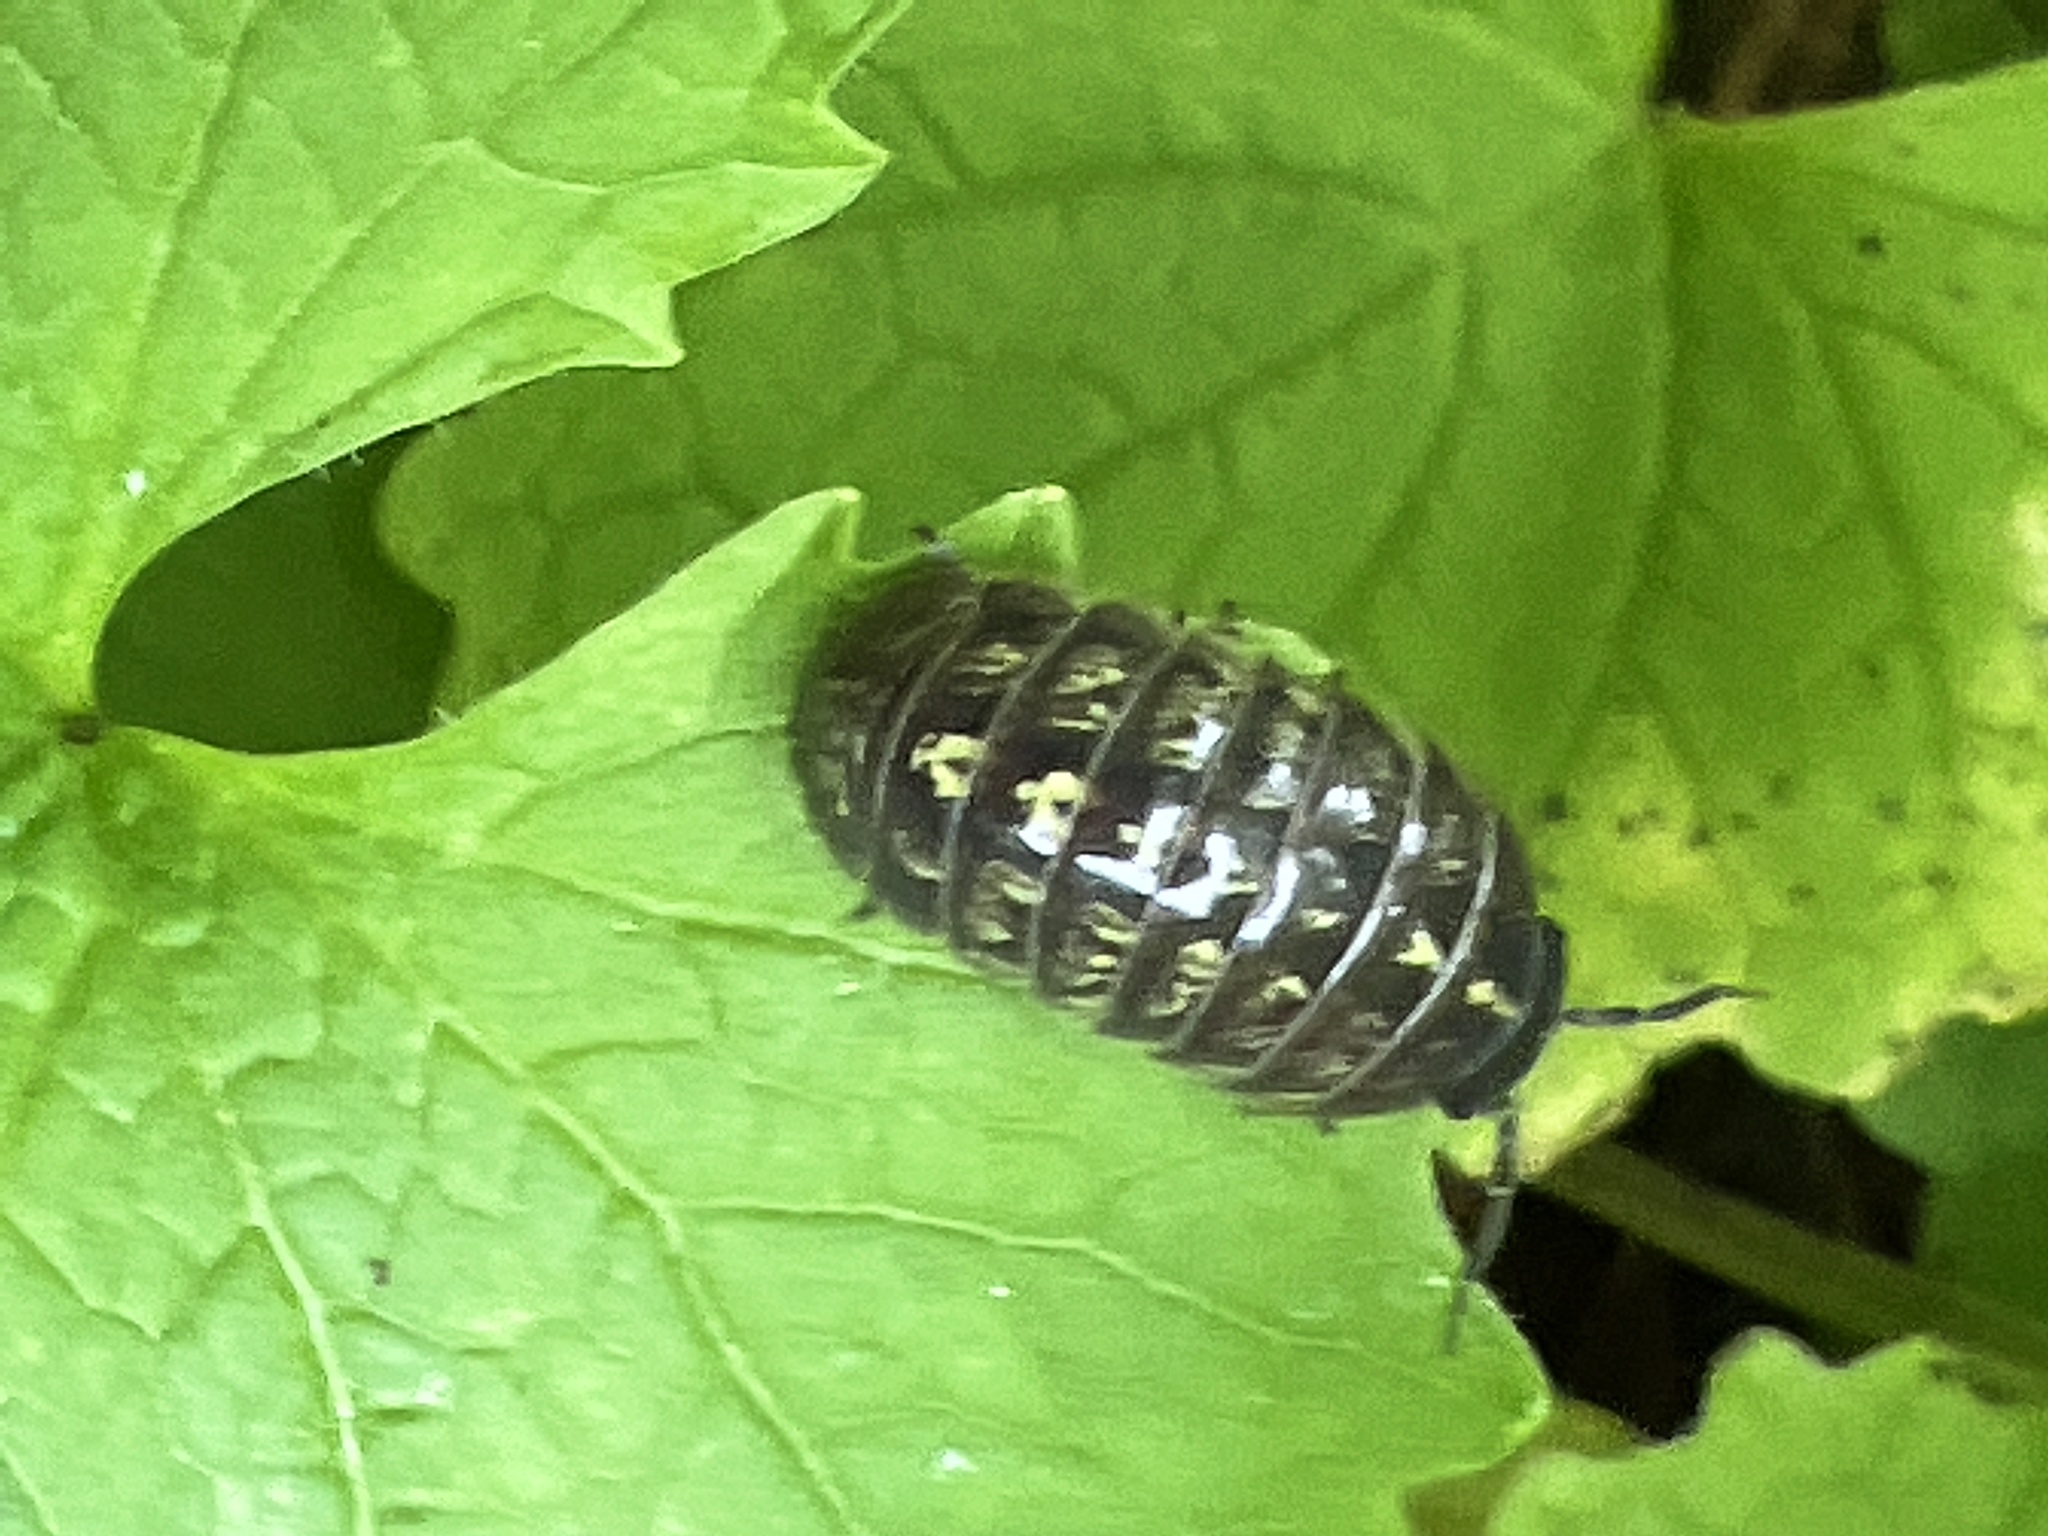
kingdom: Animalia
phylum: Arthropoda
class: Malacostraca
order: Isopoda
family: Armadillidiidae
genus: Armadillidium
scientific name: Armadillidium vulgare
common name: Common pill woodlouse
